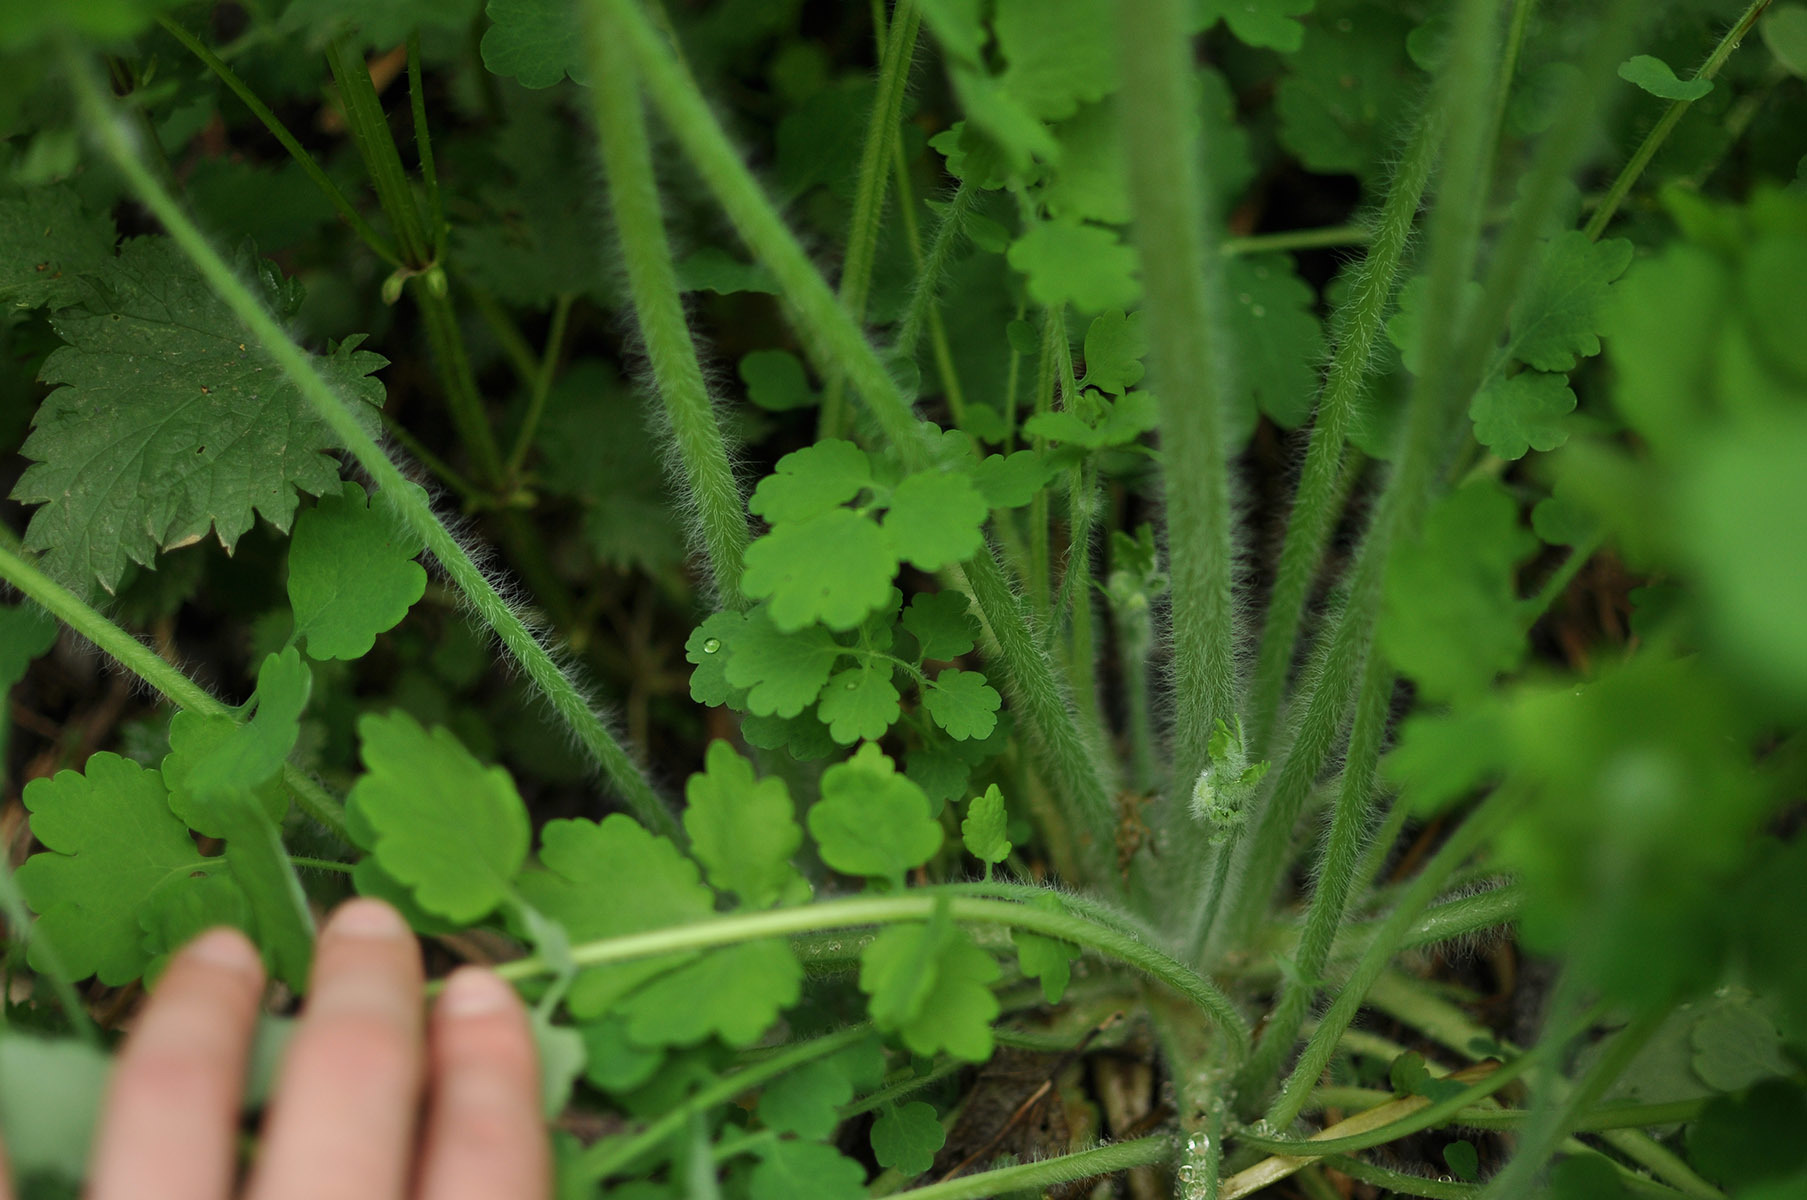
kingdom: Plantae
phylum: Tracheophyta
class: Magnoliopsida
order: Ranunculales
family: Papaveraceae
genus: Chelidonium
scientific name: Chelidonium majus
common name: Greater celandine
